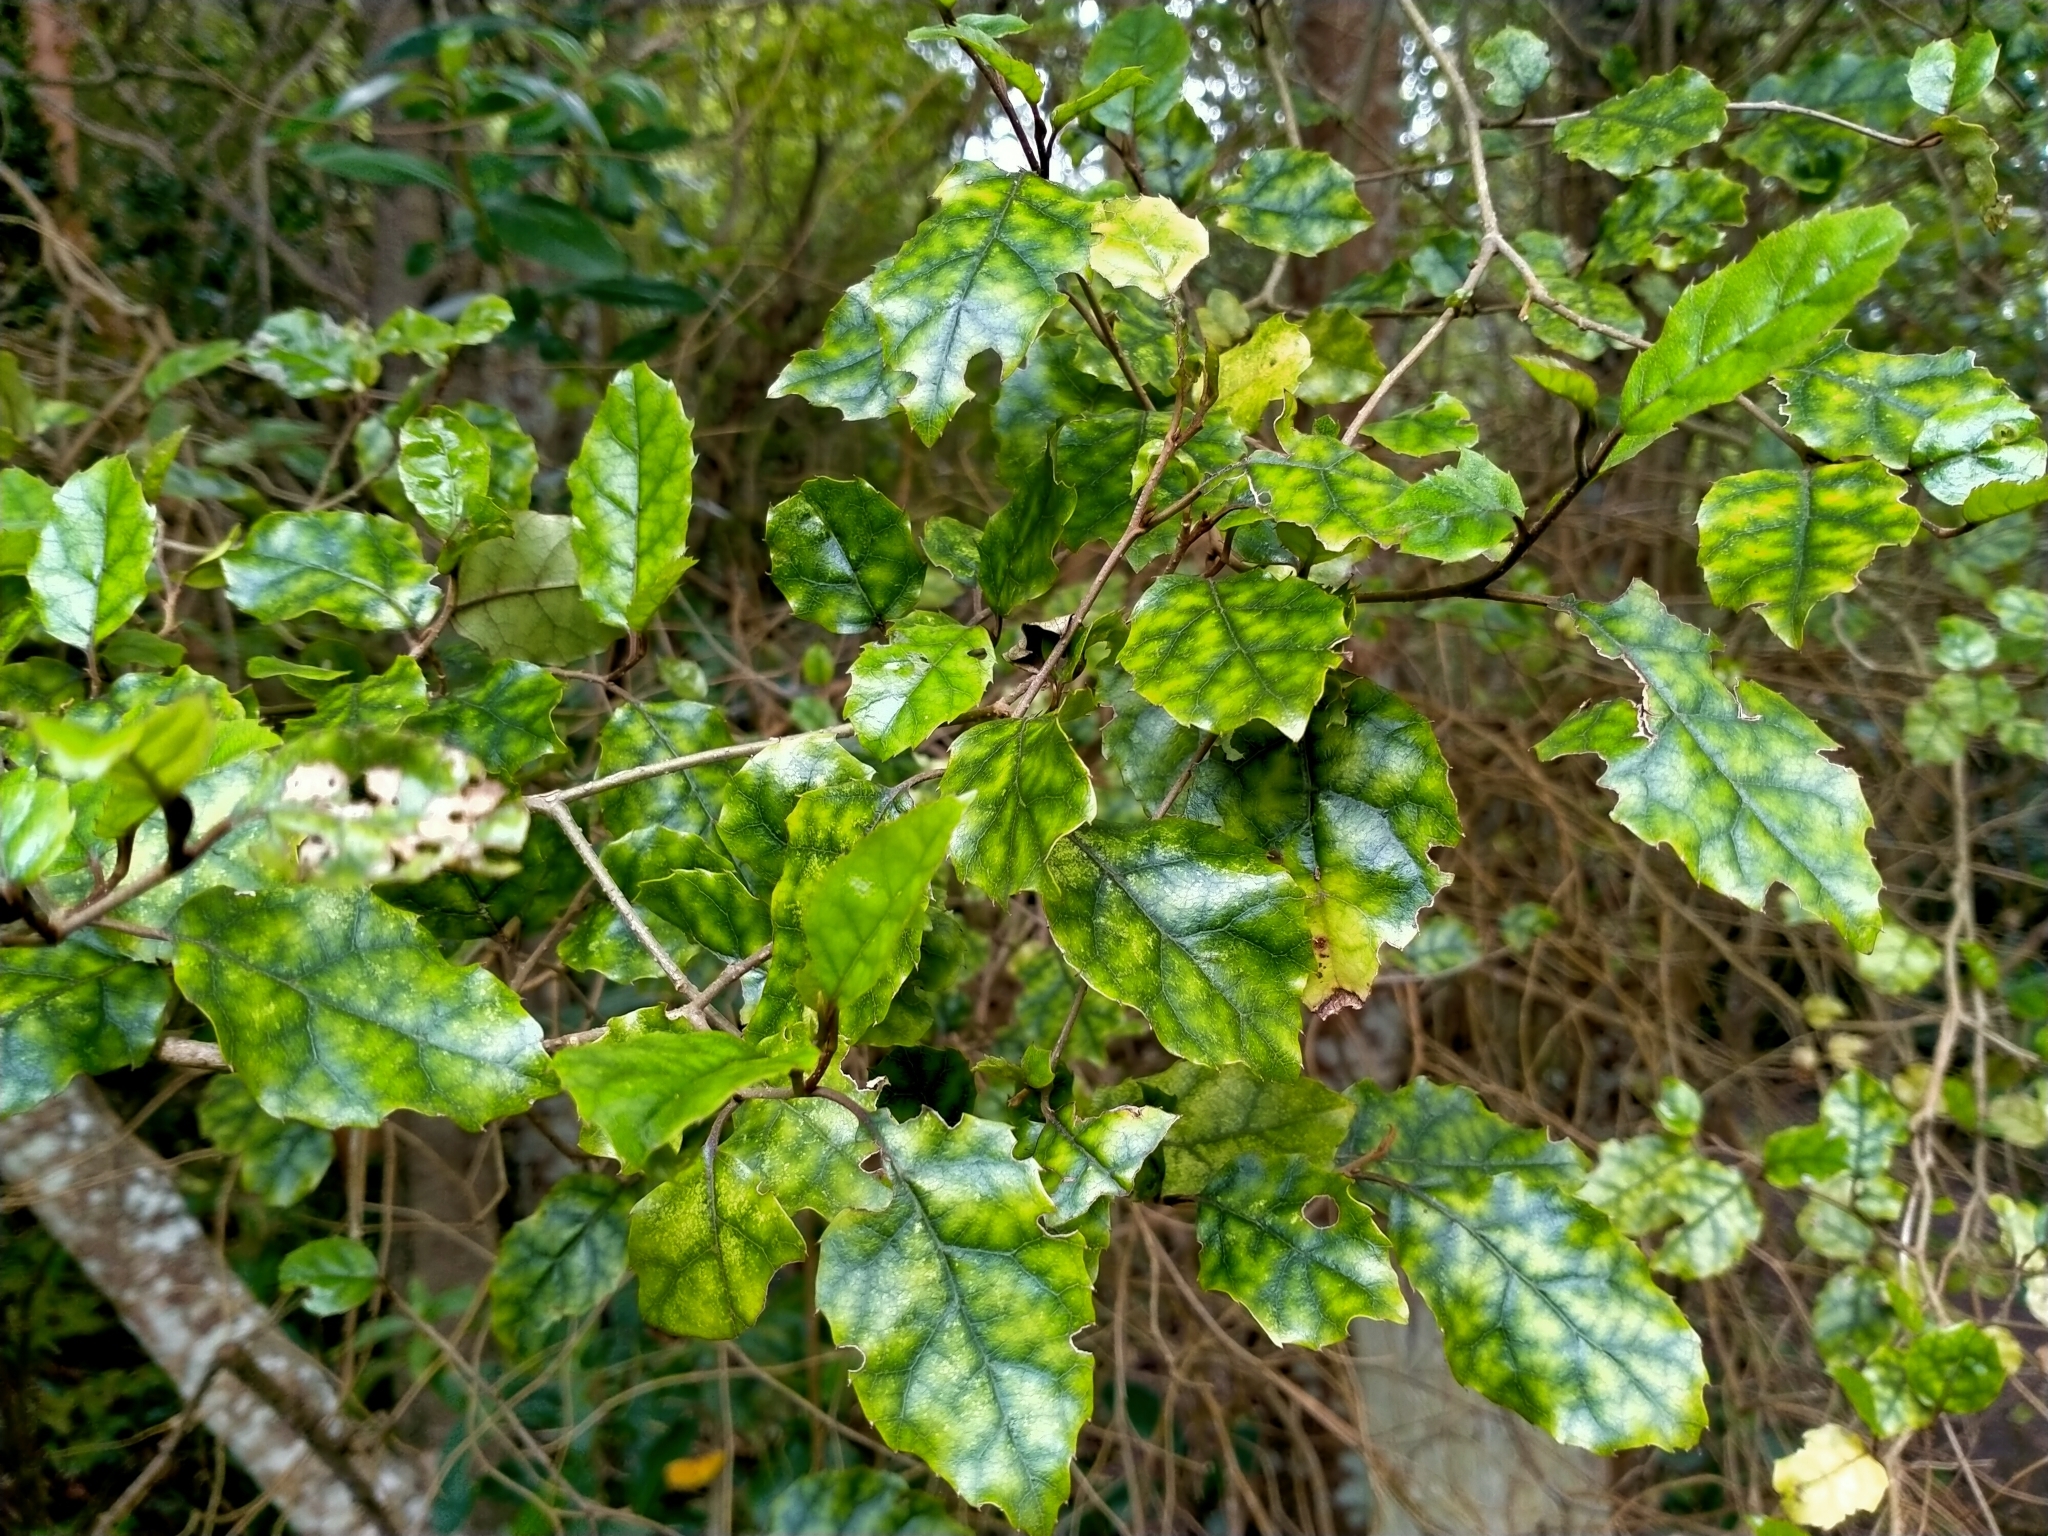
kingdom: Plantae
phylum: Tracheophyta
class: Magnoliopsida
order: Asterales
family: Rousseaceae
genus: Carpodetus
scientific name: Carpodetus serratus
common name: White mapau
